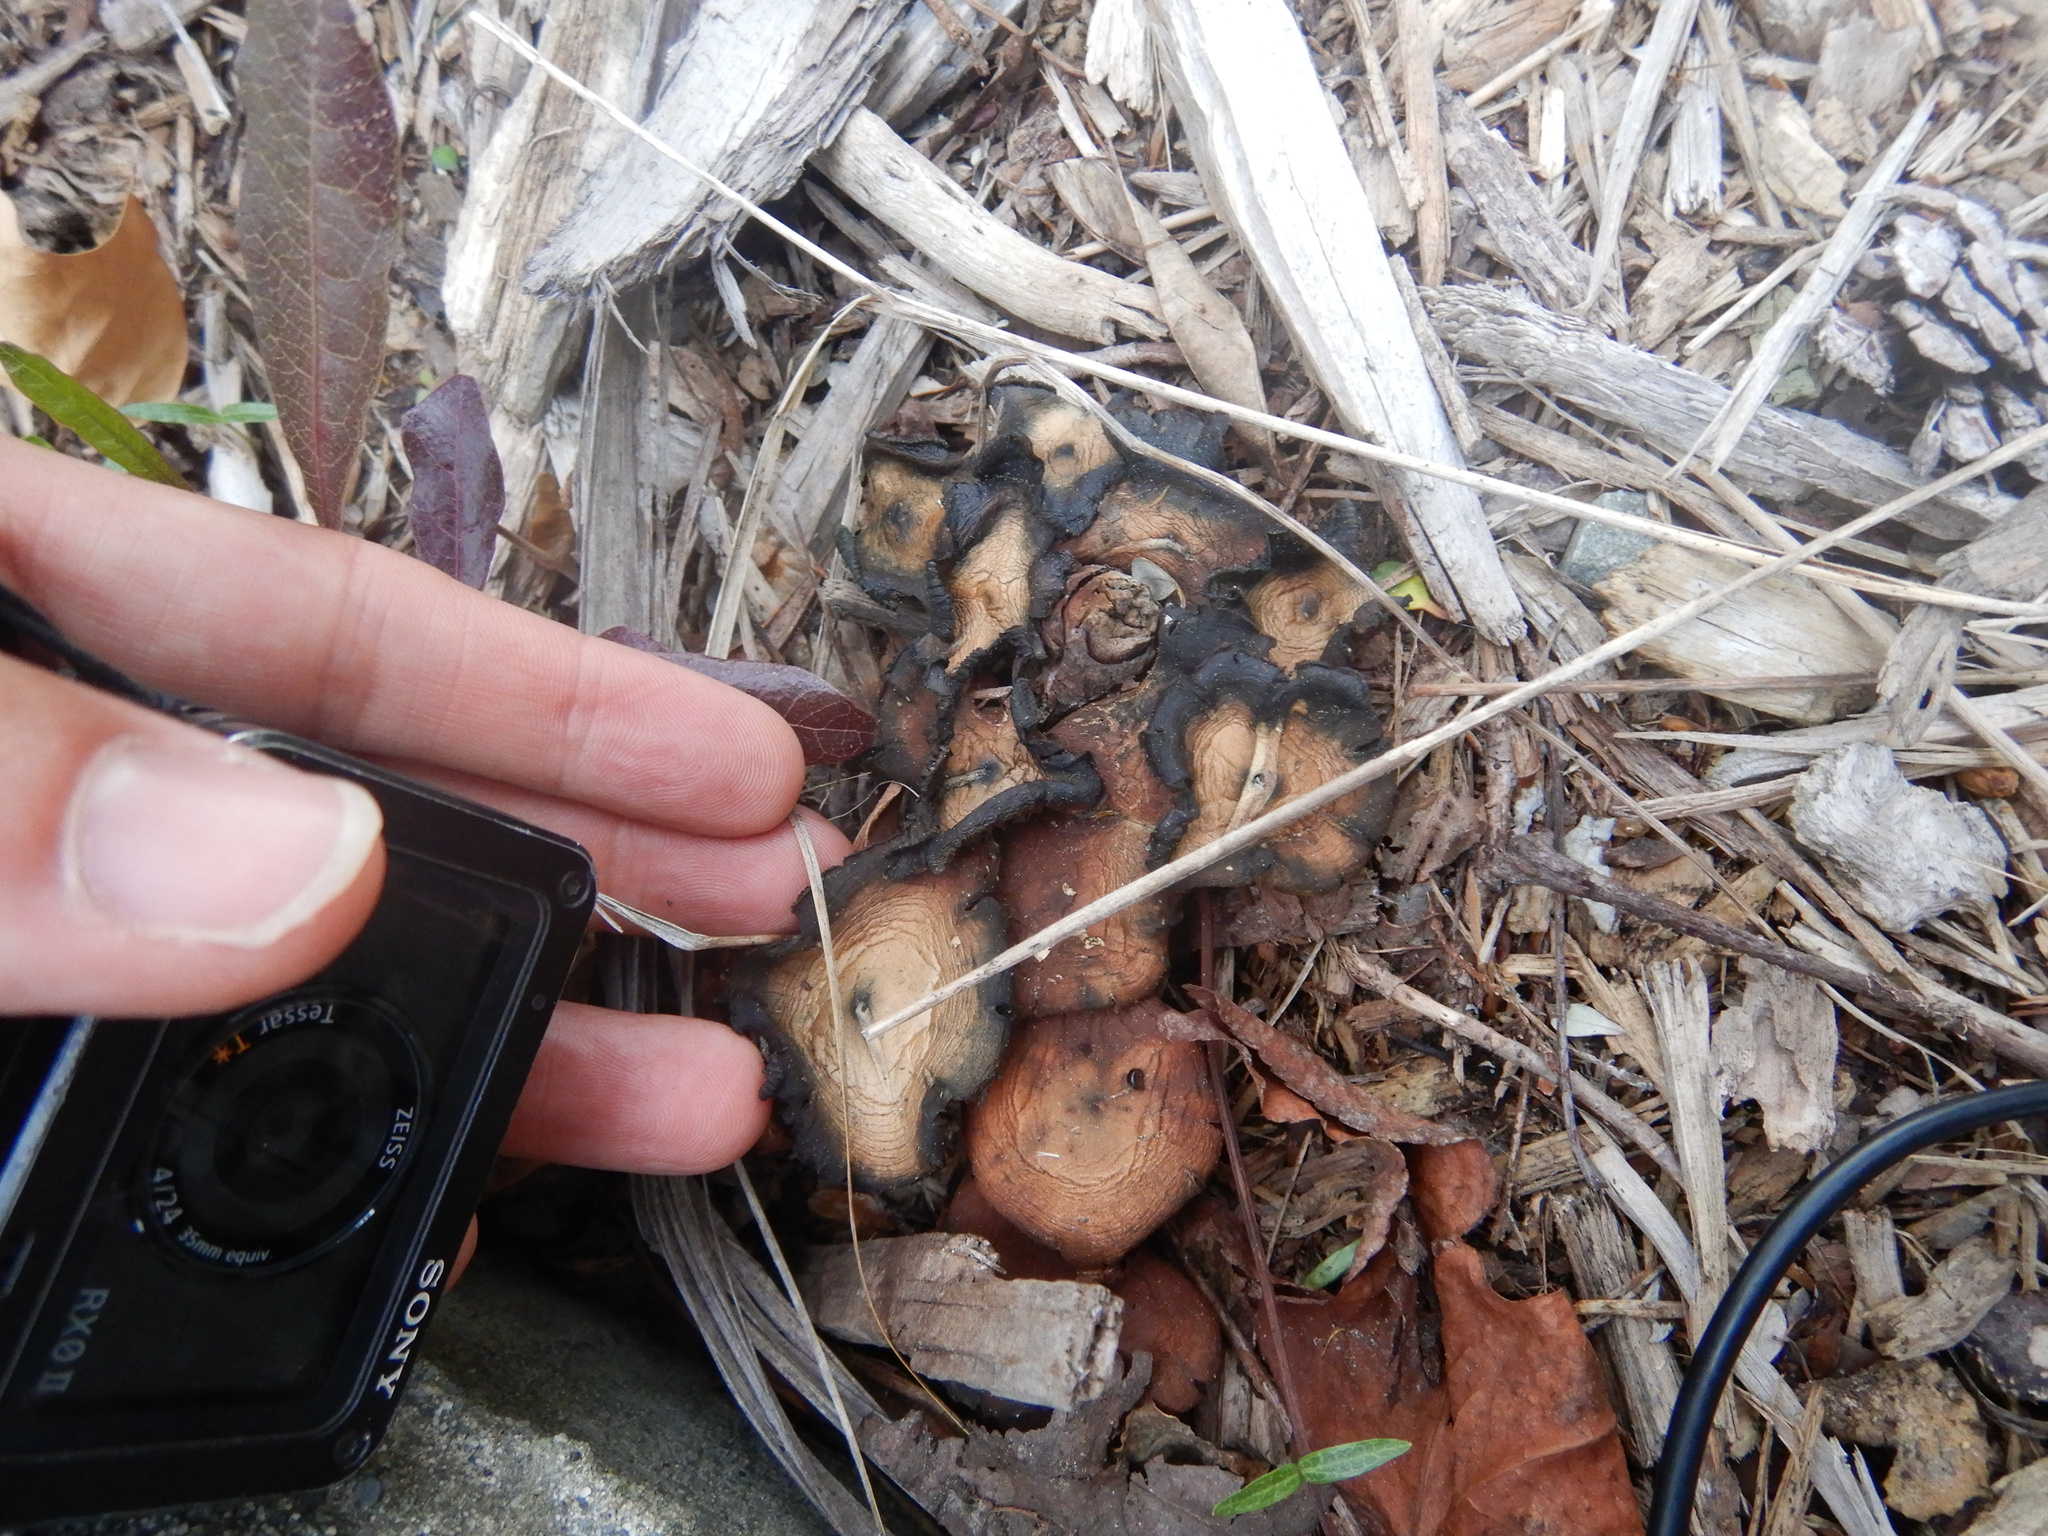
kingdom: Fungi
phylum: Basidiomycota
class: Agaricomycetes
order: Agaricales
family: Hymenogastraceae
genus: Psilocybe
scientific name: Psilocybe subaeruginosa
